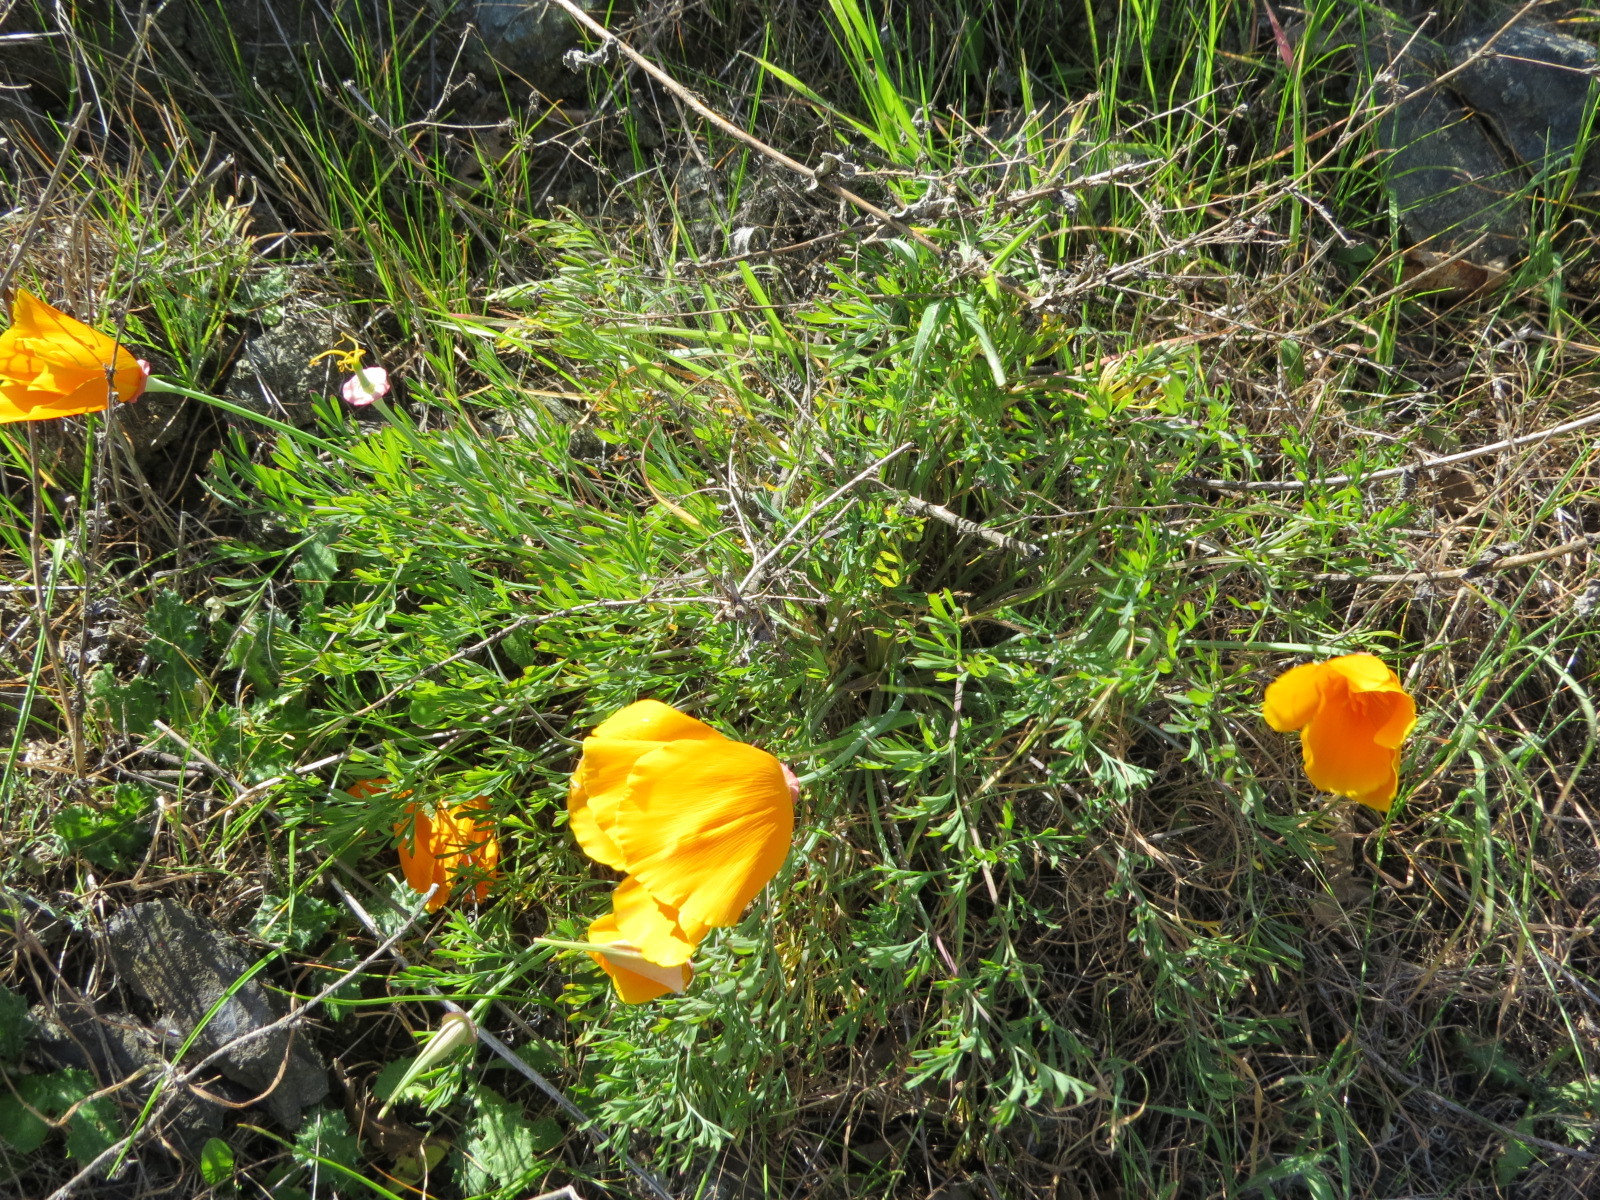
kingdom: Plantae
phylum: Tracheophyta
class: Magnoliopsida
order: Ranunculales
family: Papaveraceae
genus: Eschscholzia
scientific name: Eschscholzia californica
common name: California poppy
